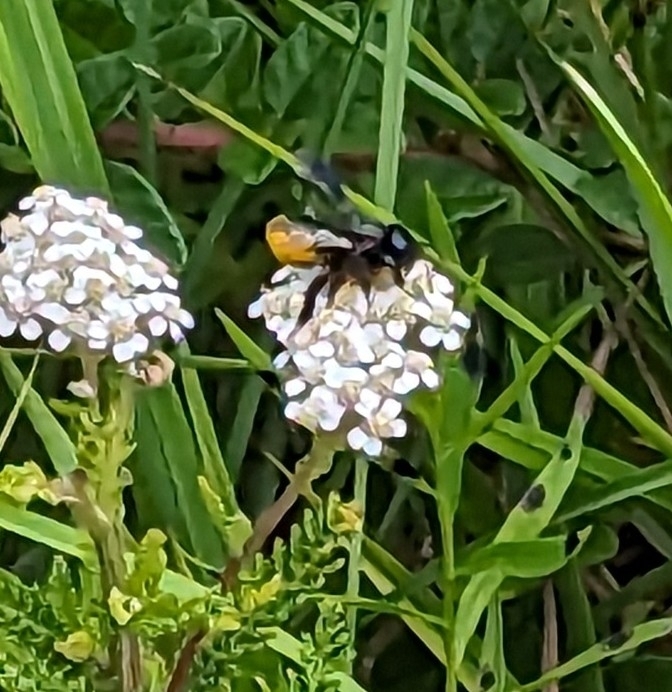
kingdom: Animalia
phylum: Arthropoda
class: Insecta
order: Hymenoptera
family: Megachilidae
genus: Megachile
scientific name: Megachile xylocopoides
